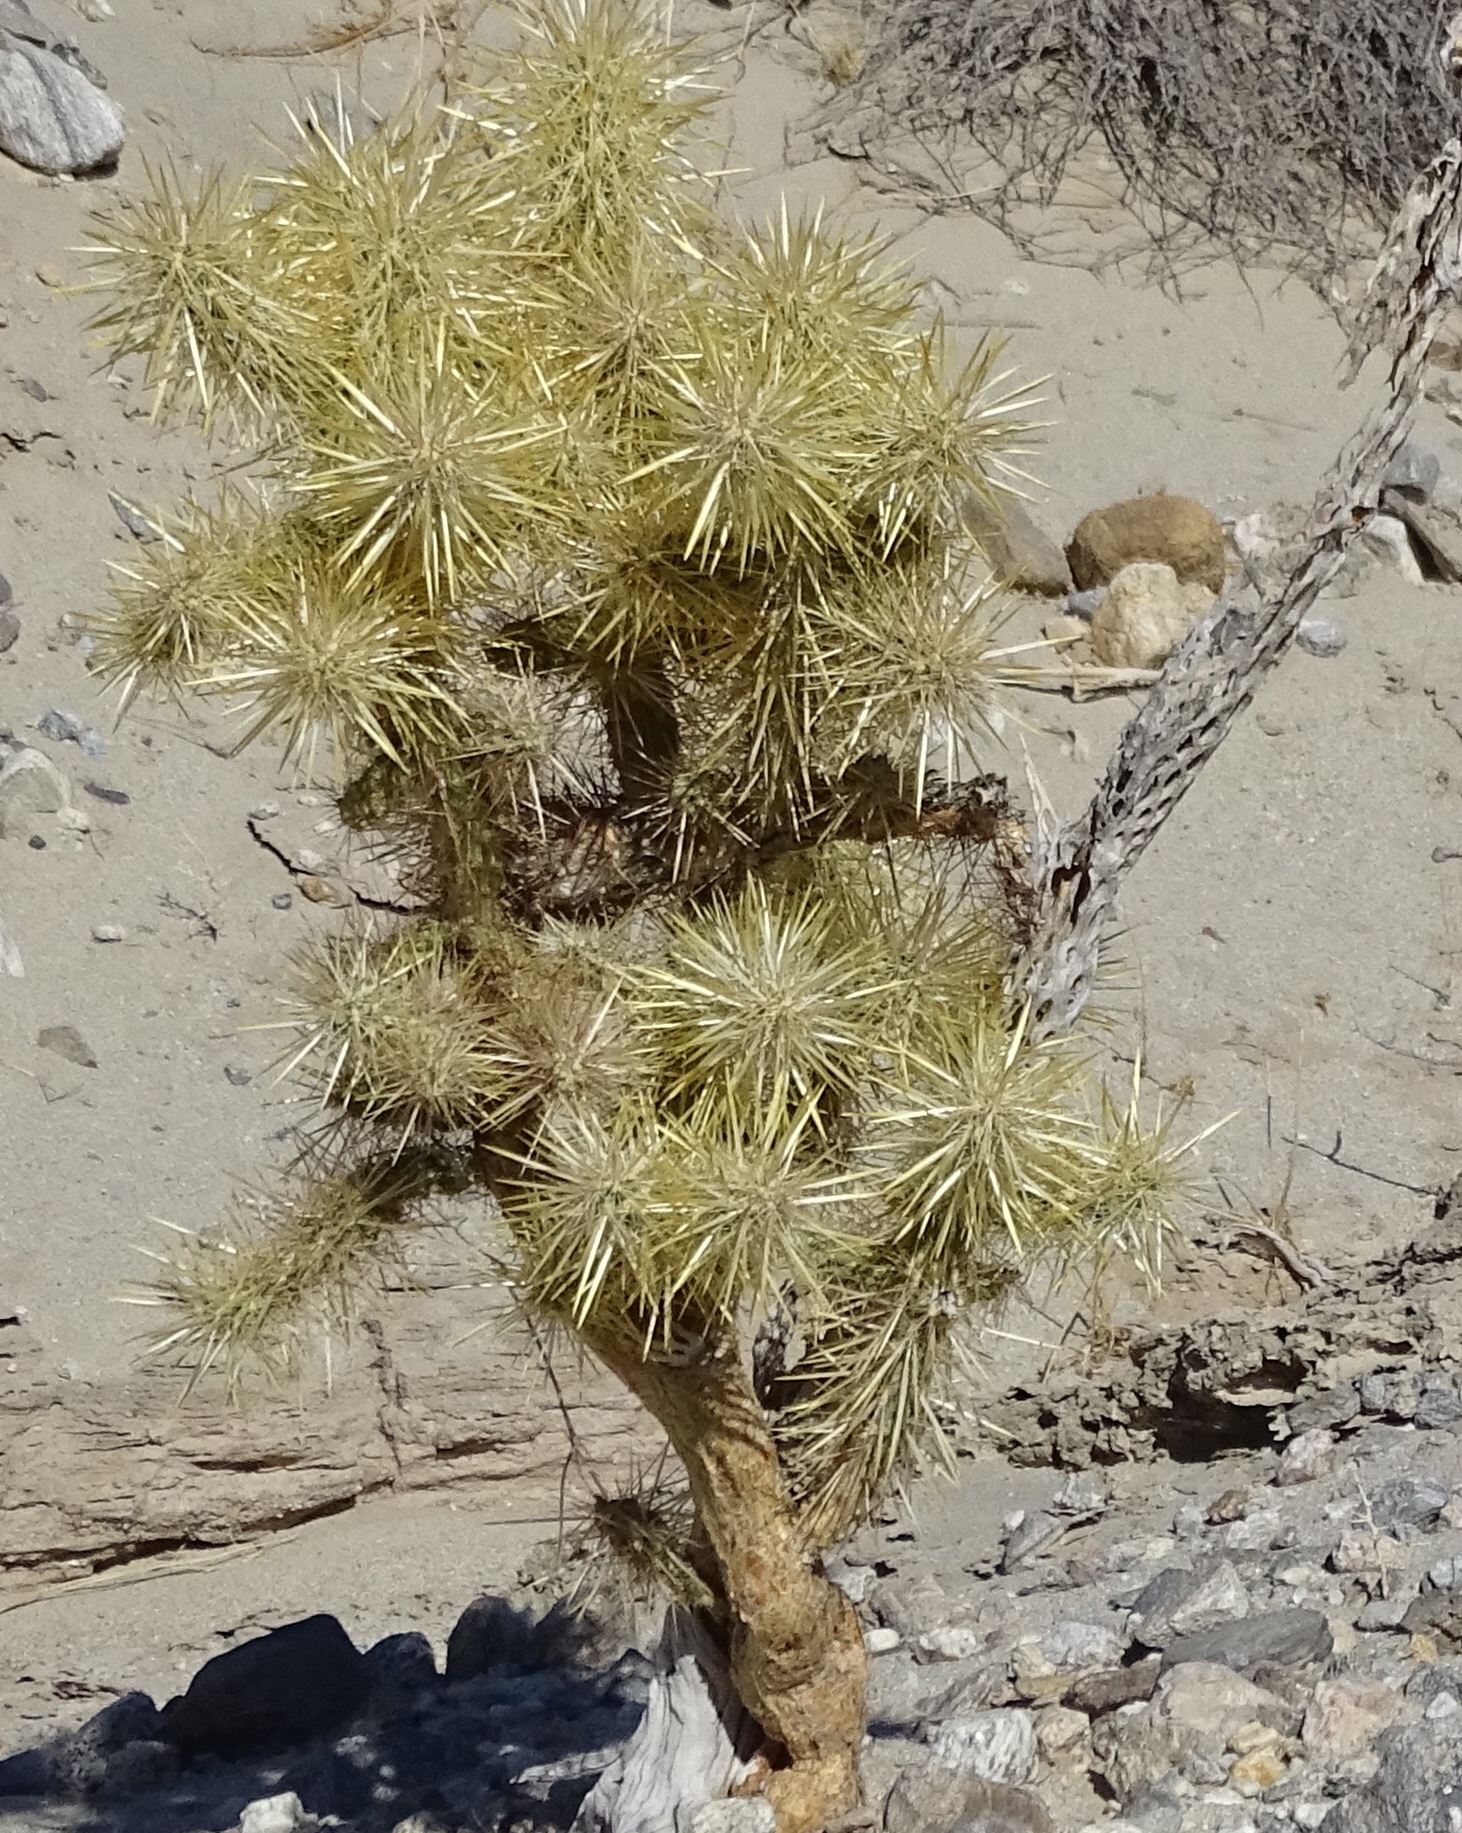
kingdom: Plantae
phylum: Tracheophyta
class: Magnoliopsida
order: Caryophyllales
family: Cactaceae
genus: Cylindropuntia
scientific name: Cylindropuntia echinocarpa
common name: Ground cholla
